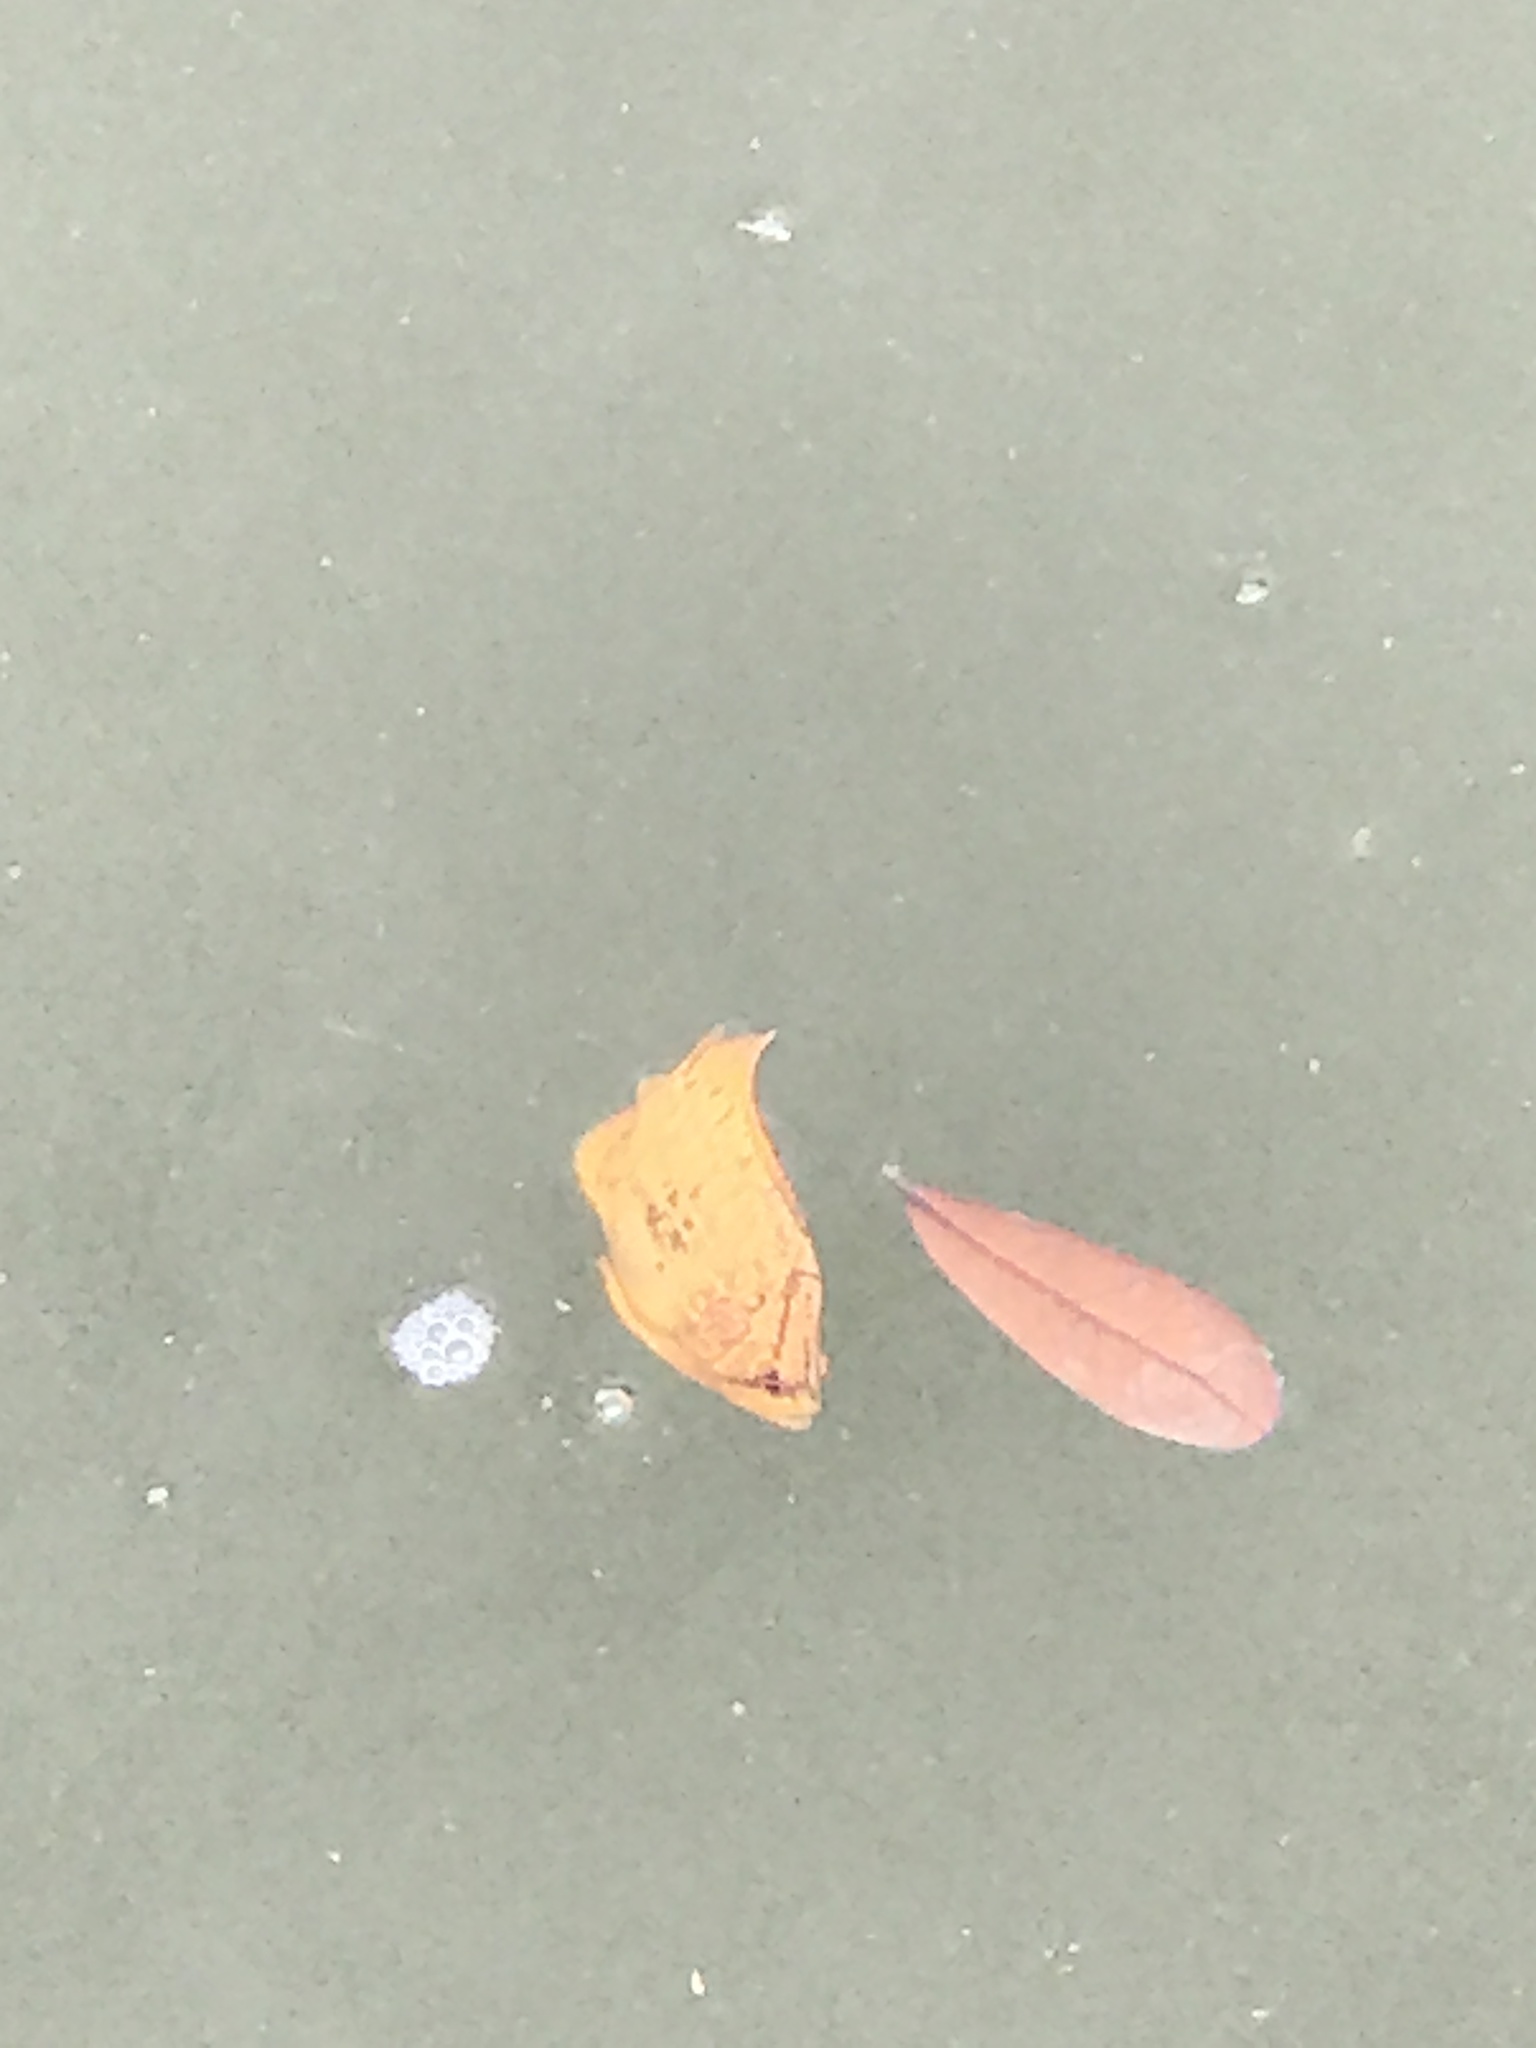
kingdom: Animalia
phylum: Chordata
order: Perciformes
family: Lobotidae
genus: Lobotes
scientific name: Lobotes surinamensis
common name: Atlantic tripletail
